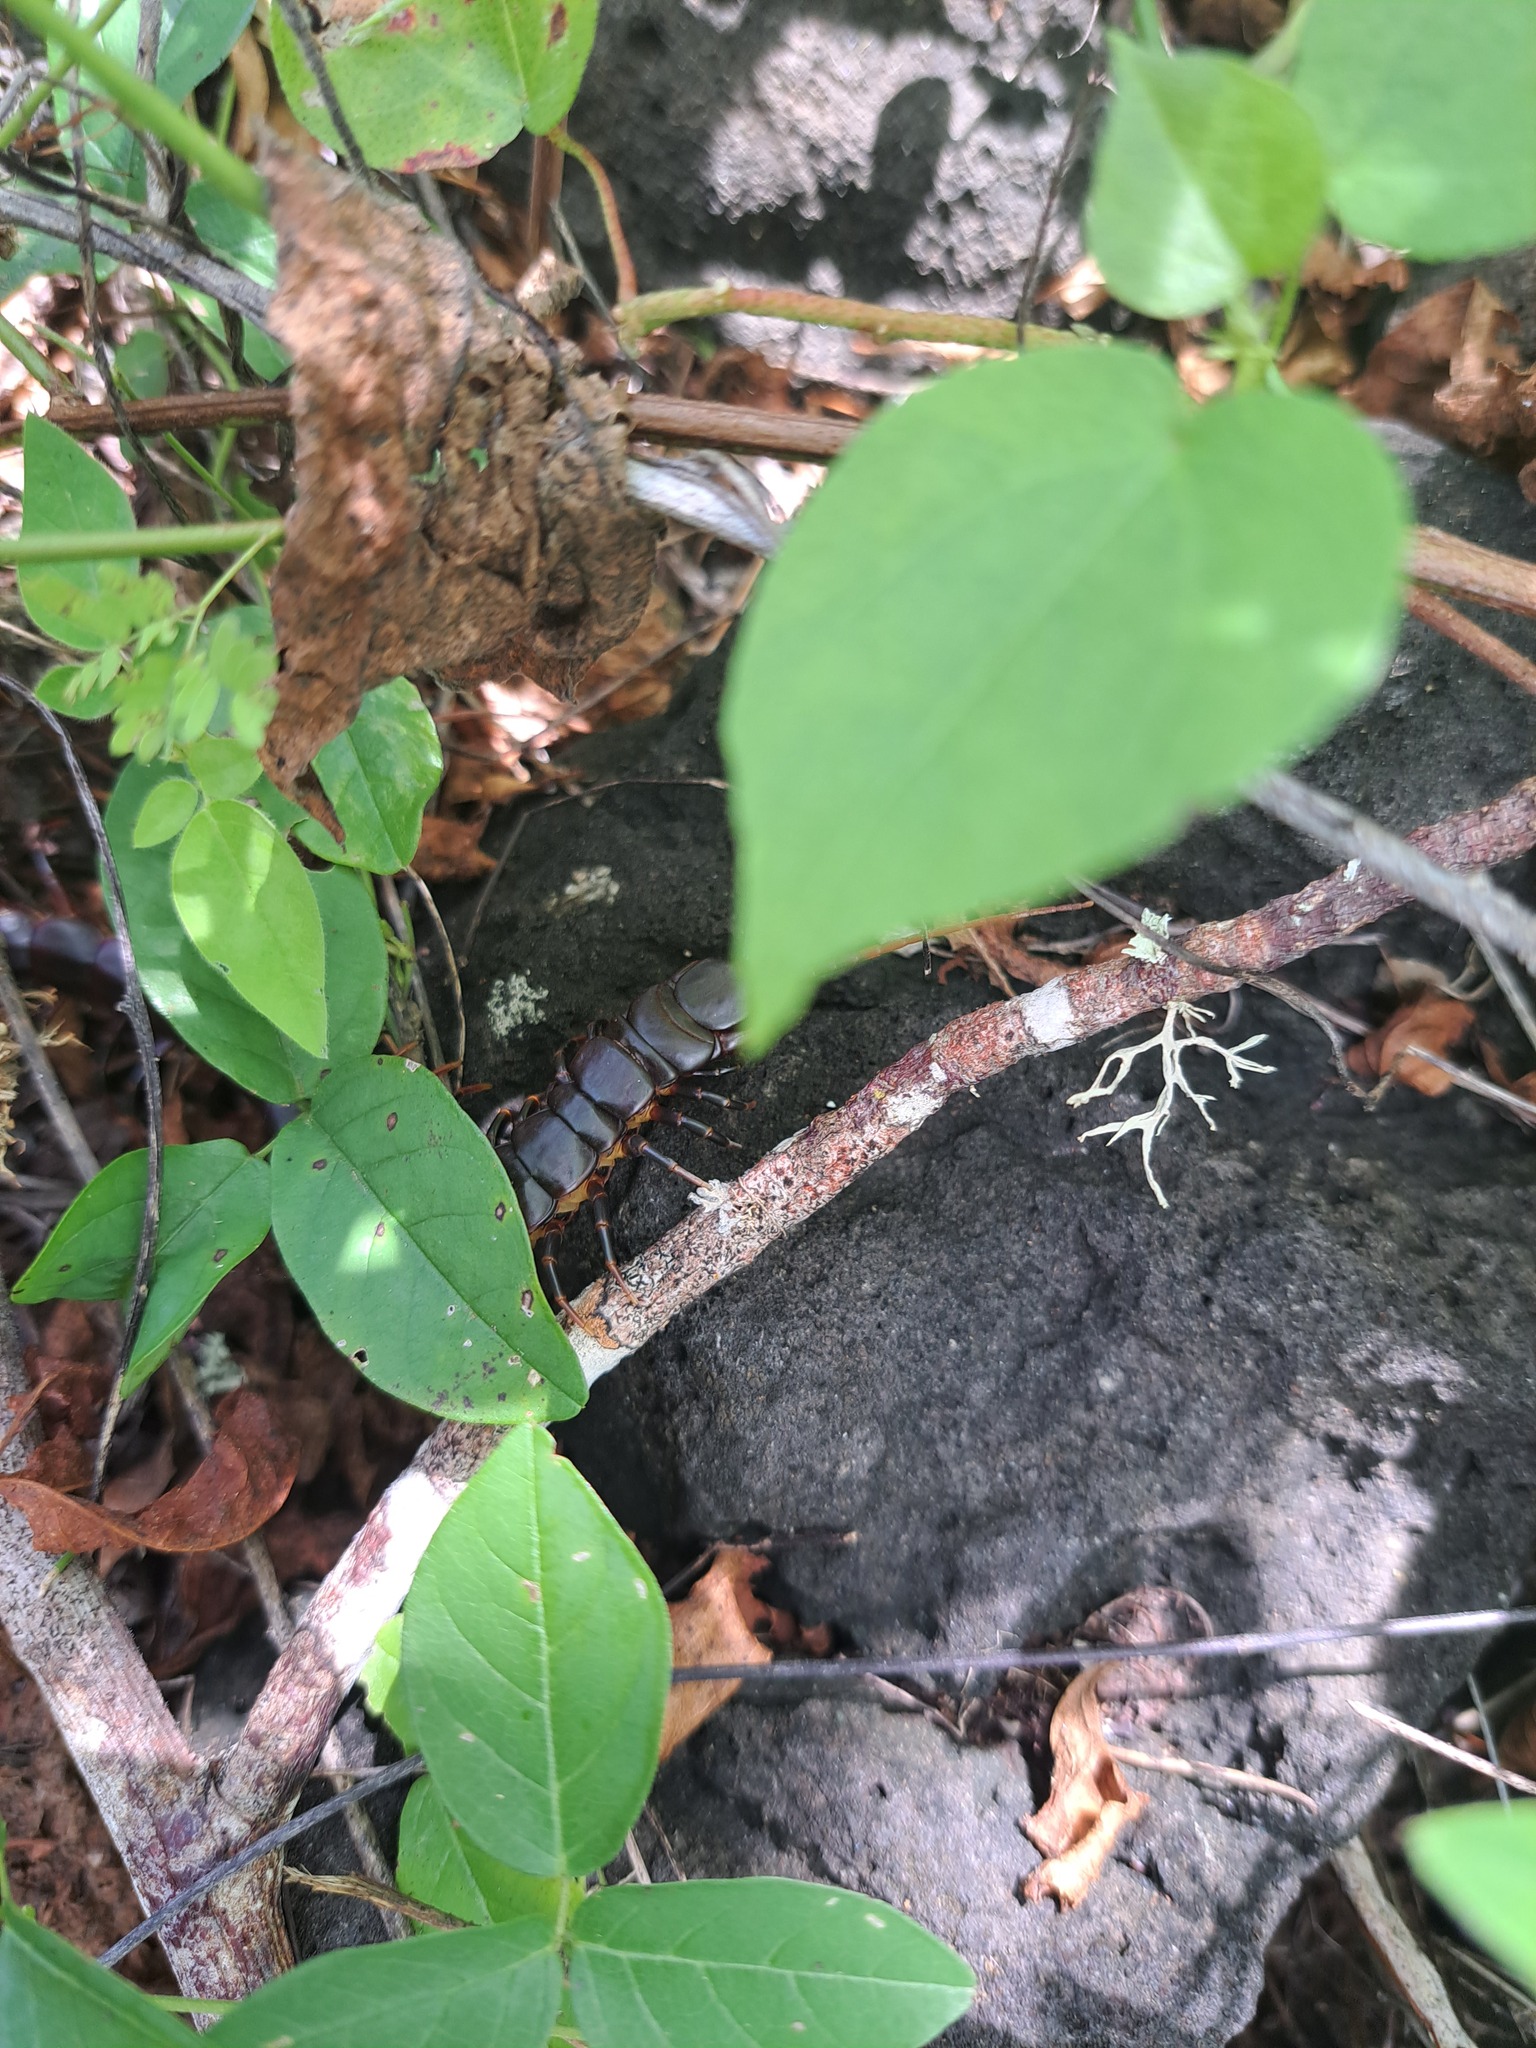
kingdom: Animalia
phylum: Arthropoda
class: Chilopoda
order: Scolopendromorpha
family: Scolopendridae
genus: Scolopendra
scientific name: Scolopendra galapagoensis
